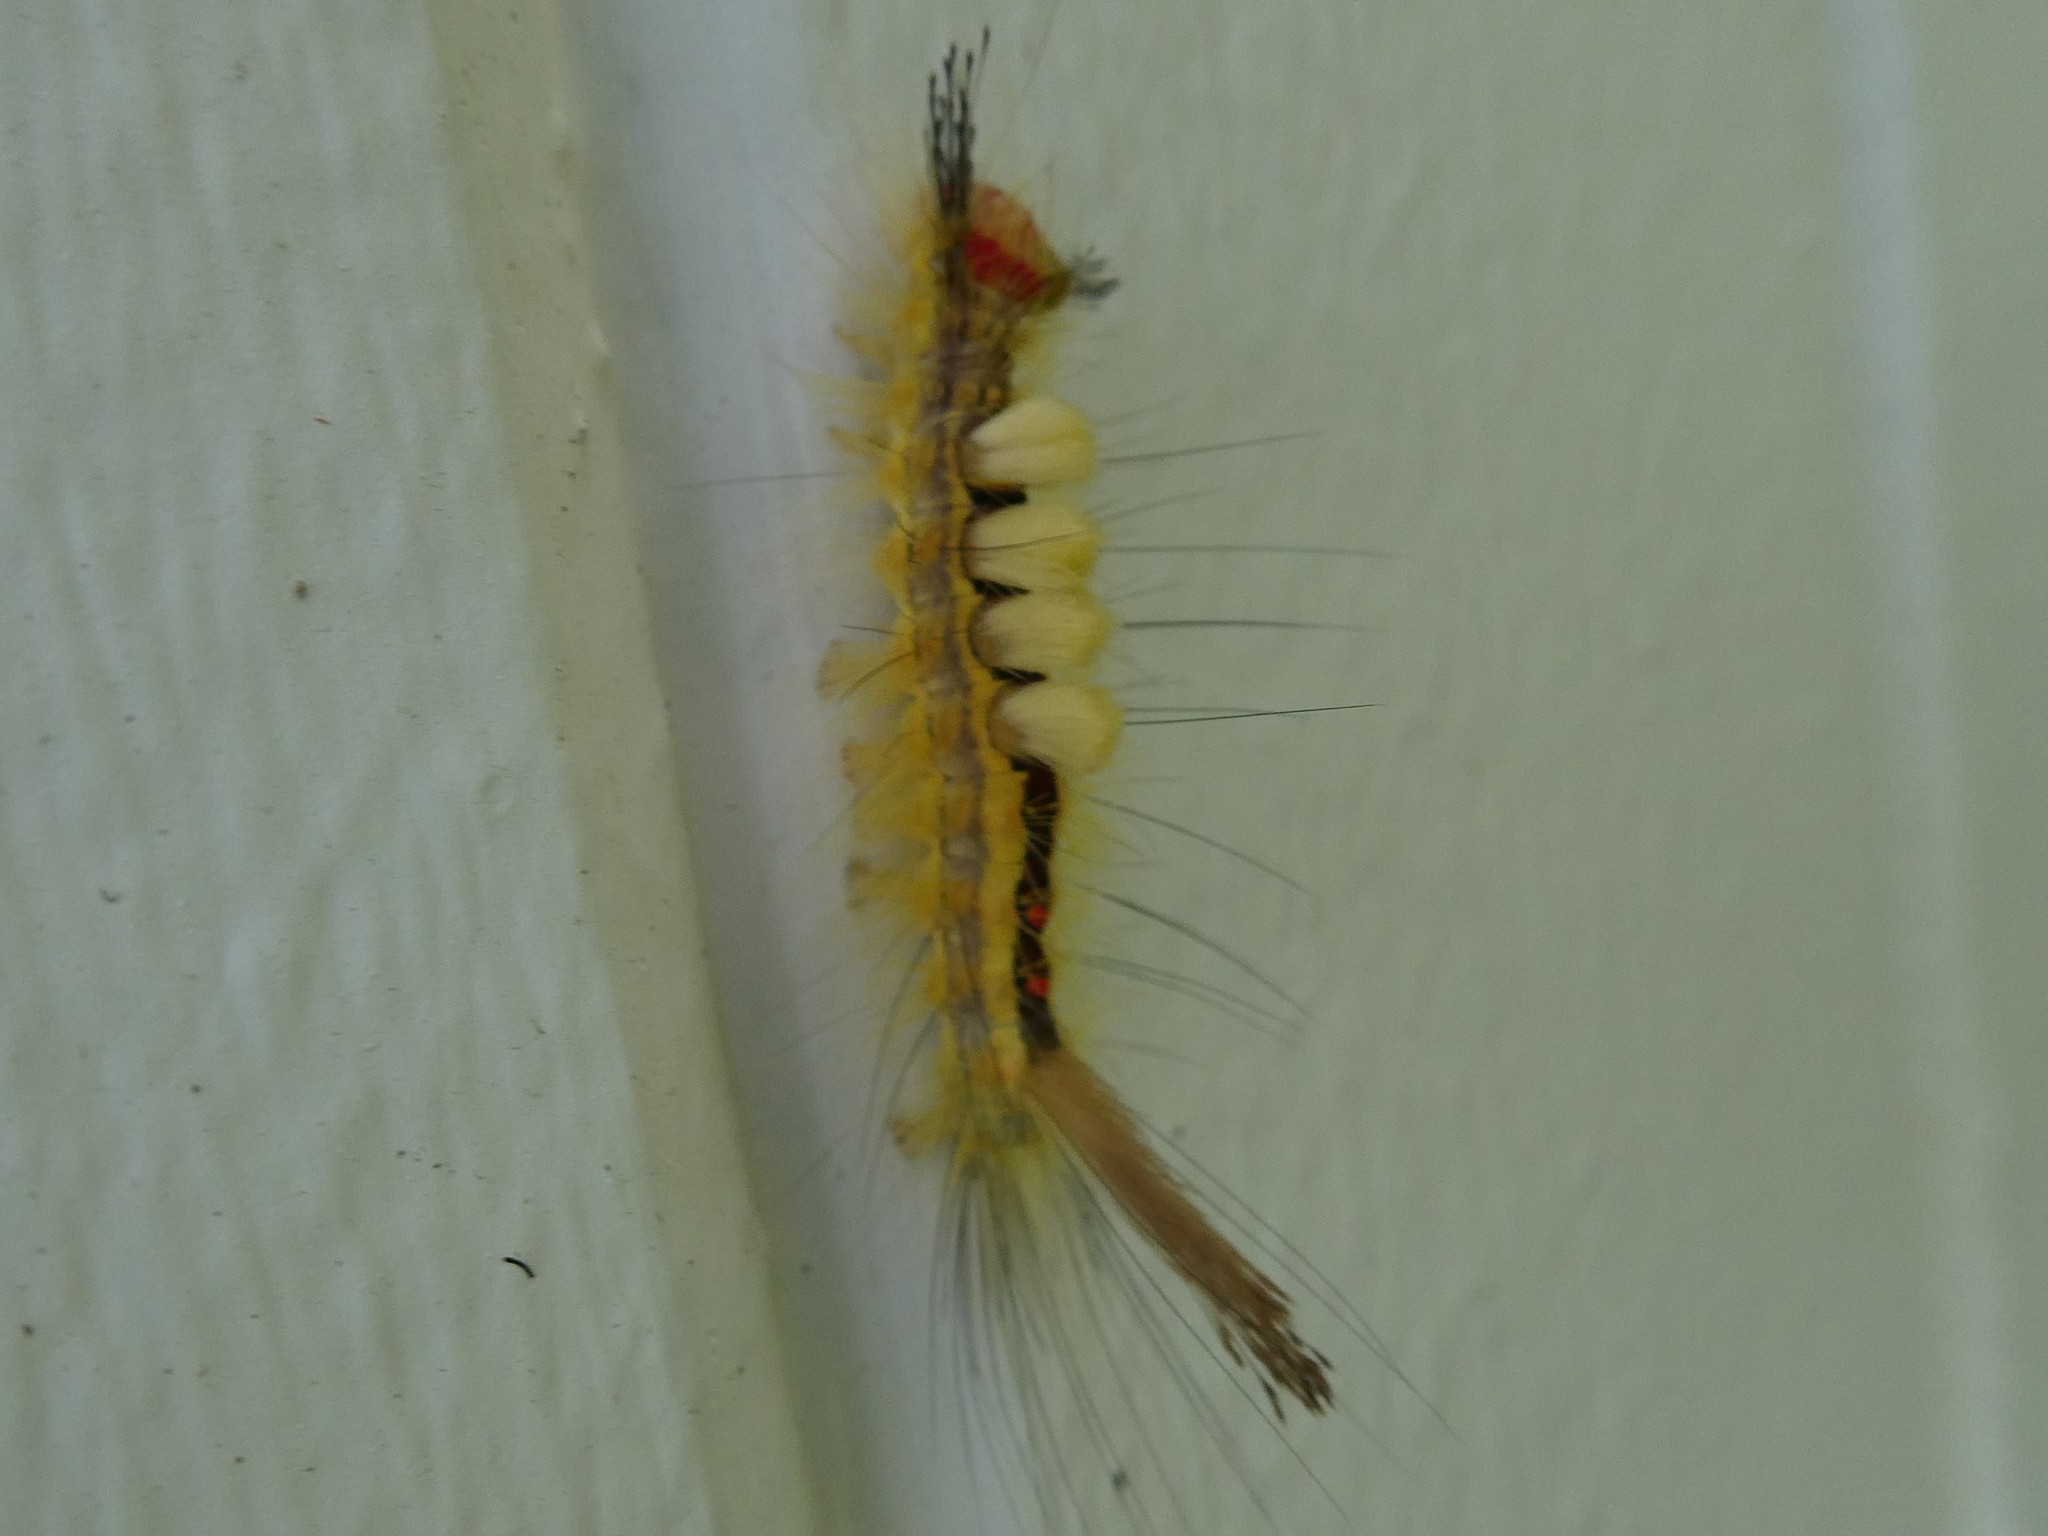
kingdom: Animalia
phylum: Arthropoda
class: Insecta
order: Lepidoptera
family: Erebidae
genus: Orgyia
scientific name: Orgyia leucostigma
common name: White-marked tussock moth
